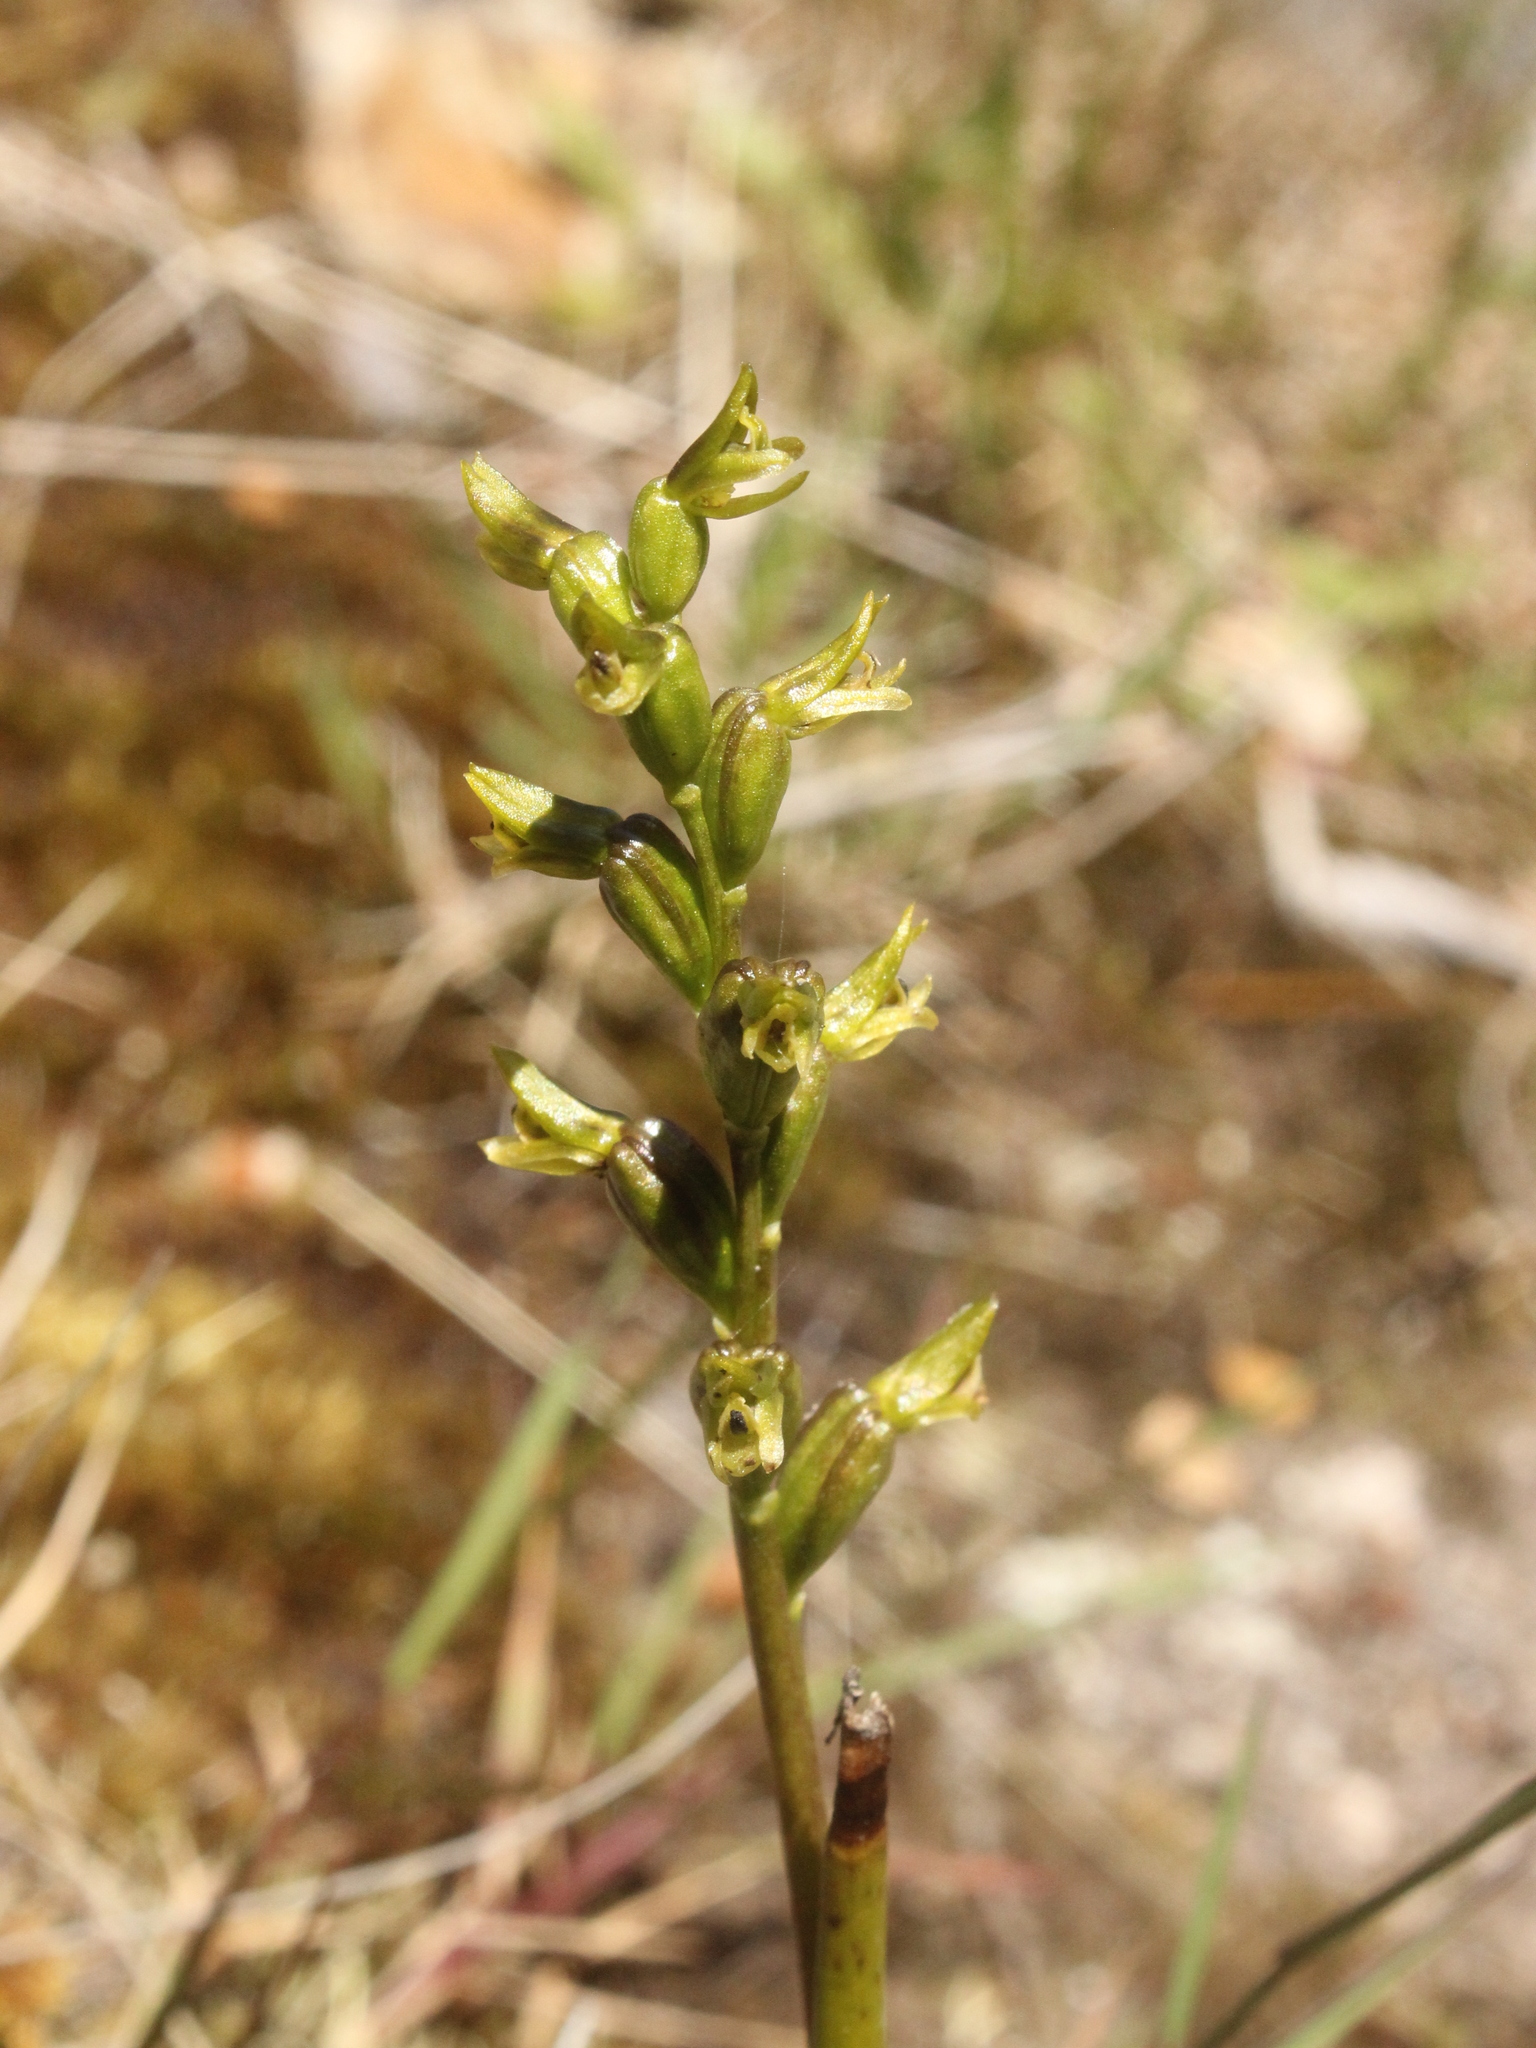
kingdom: Plantae
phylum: Tracheophyta
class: Liliopsida
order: Asparagales
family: Orchidaceae
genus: Prasophyllum
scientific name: Prasophyllum colensoi
